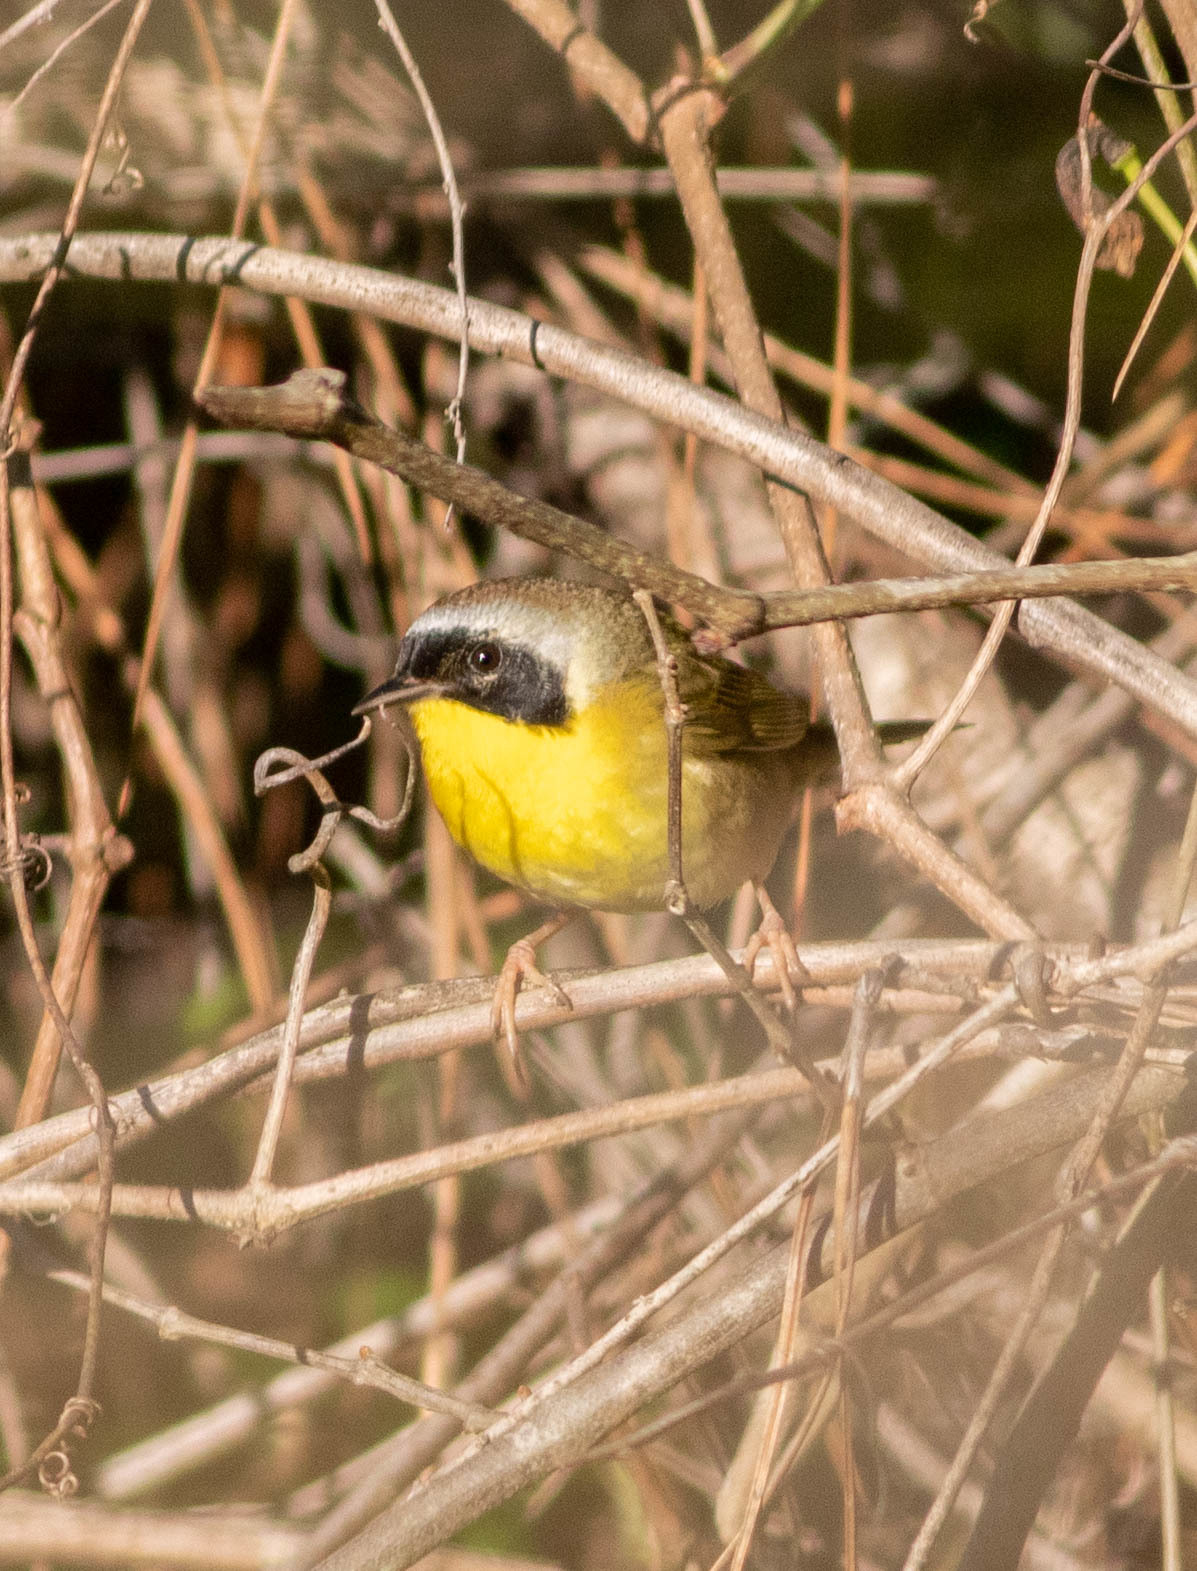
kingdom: Animalia
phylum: Chordata
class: Aves
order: Passeriformes
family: Parulidae
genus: Geothlypis
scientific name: Geothlypis trichas
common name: Common yellowthroat
